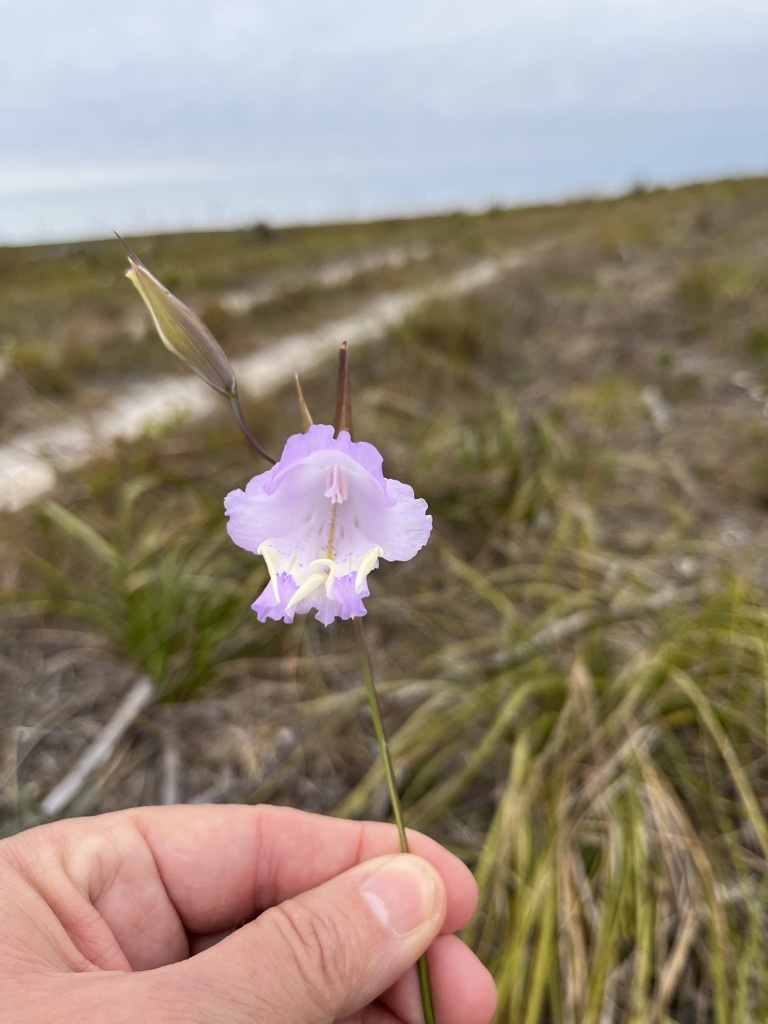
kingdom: Plantae
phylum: Tracheophyta
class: Liliopsida
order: Asparagales
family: Iridaceae
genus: Gladiolus
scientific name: Gladiolus bullatus
